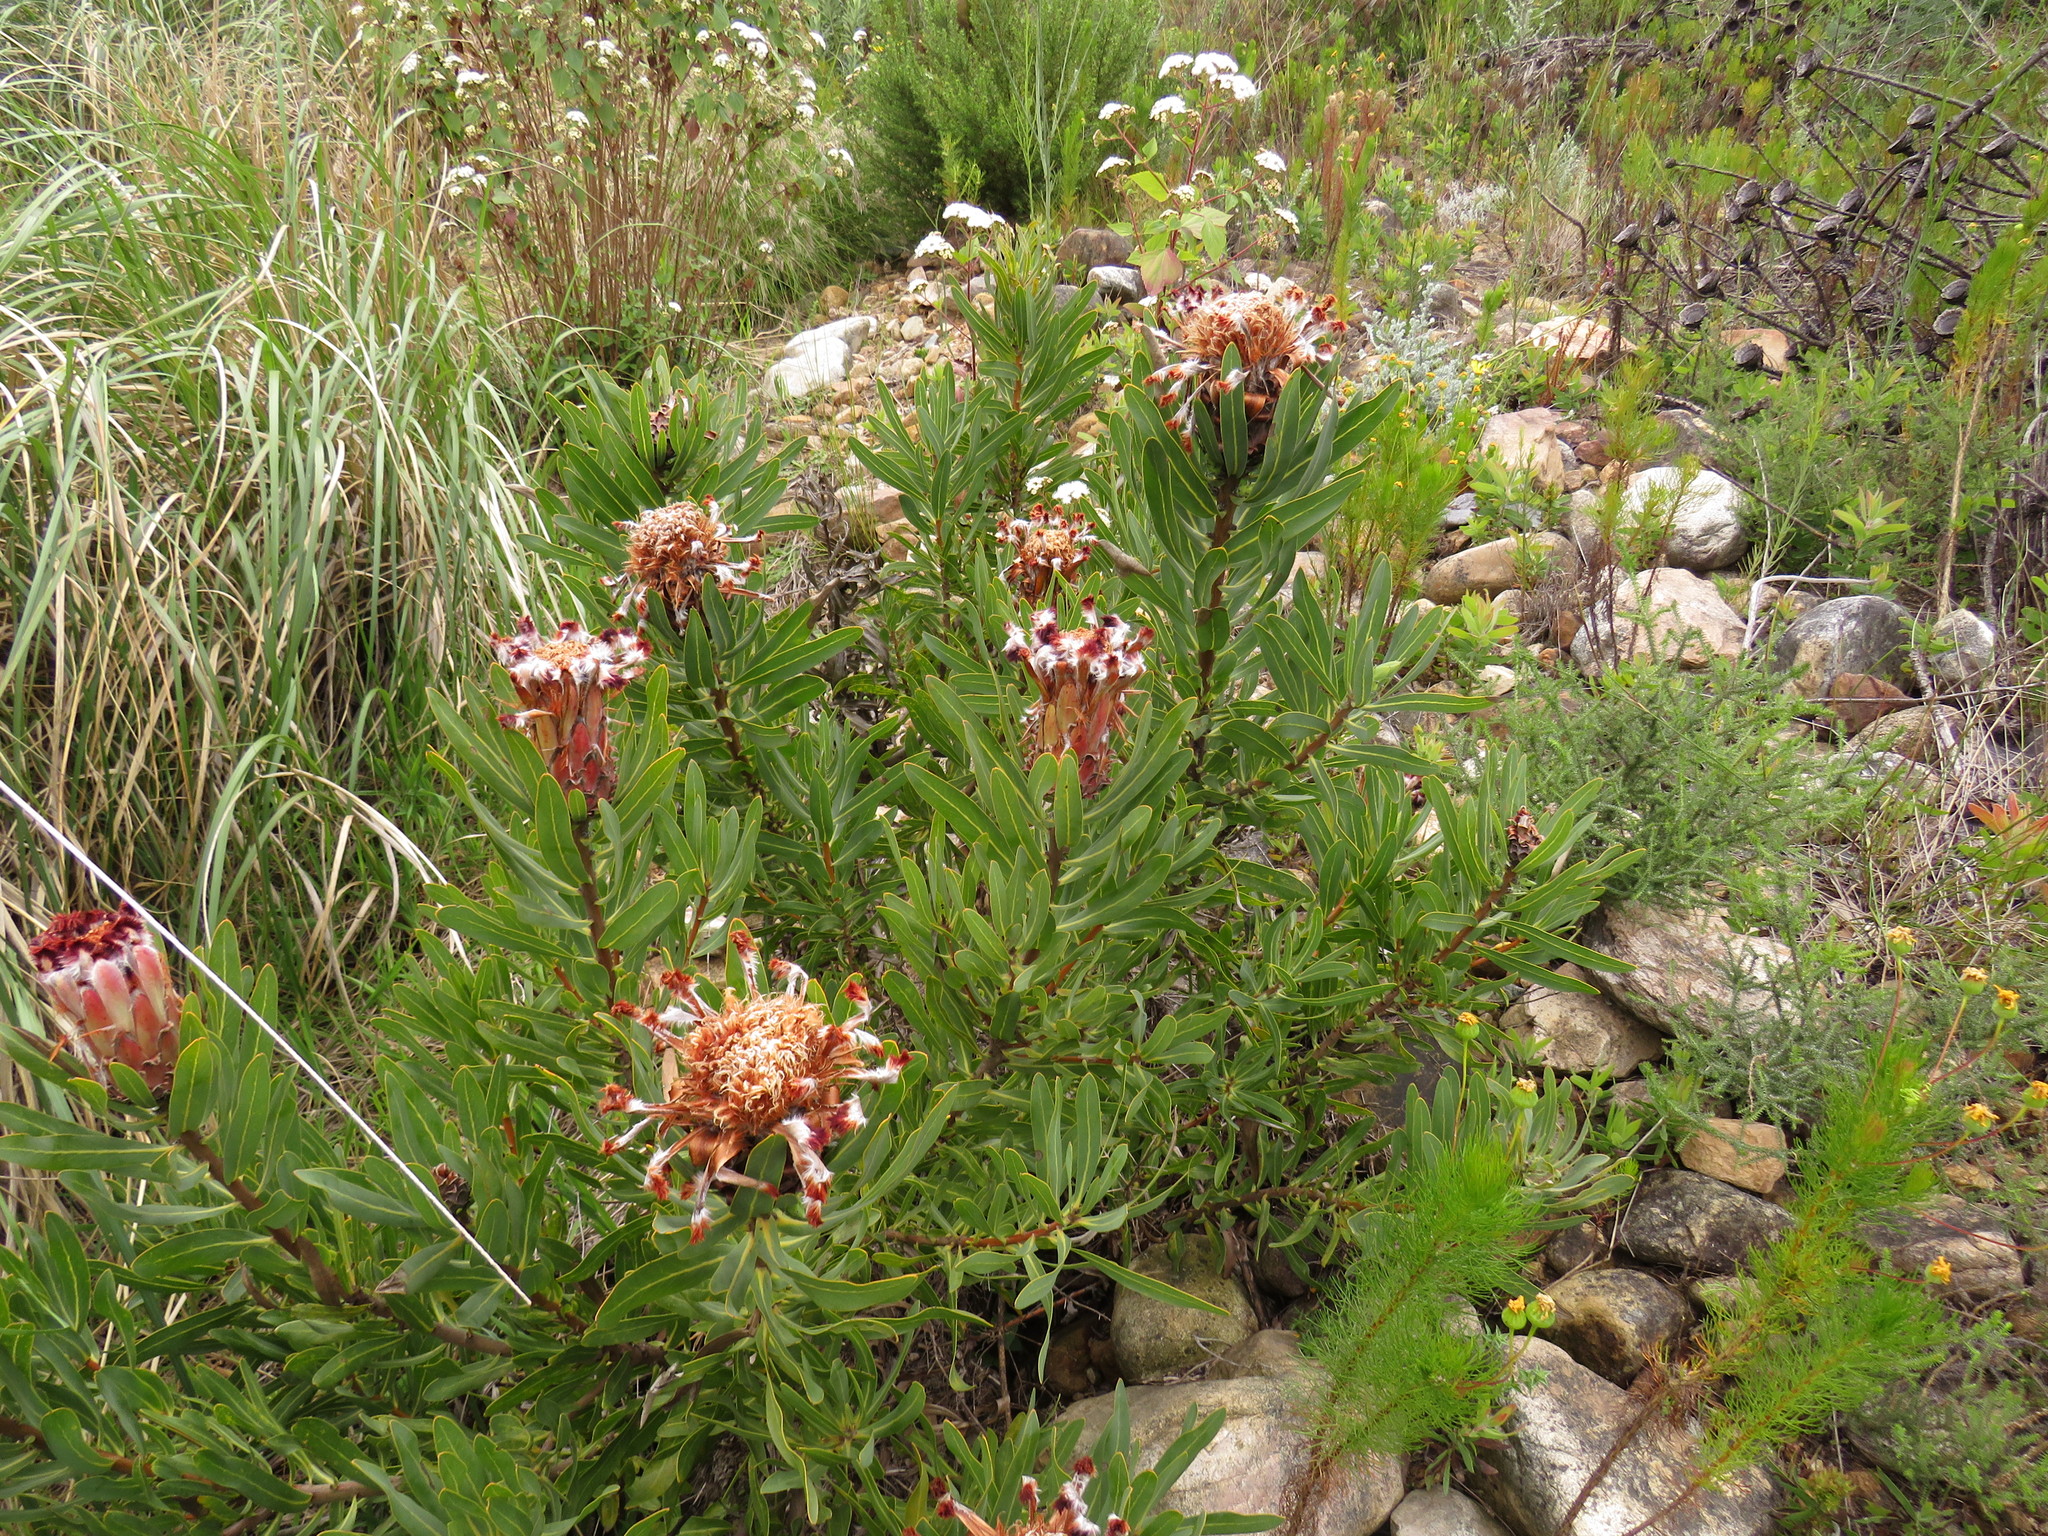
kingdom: Plantae
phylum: Tracheophyta
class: Magnoliopsida
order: Proteales
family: Proteaceae
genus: Protea
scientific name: Protea neriifolia
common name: Blue sugarbush
